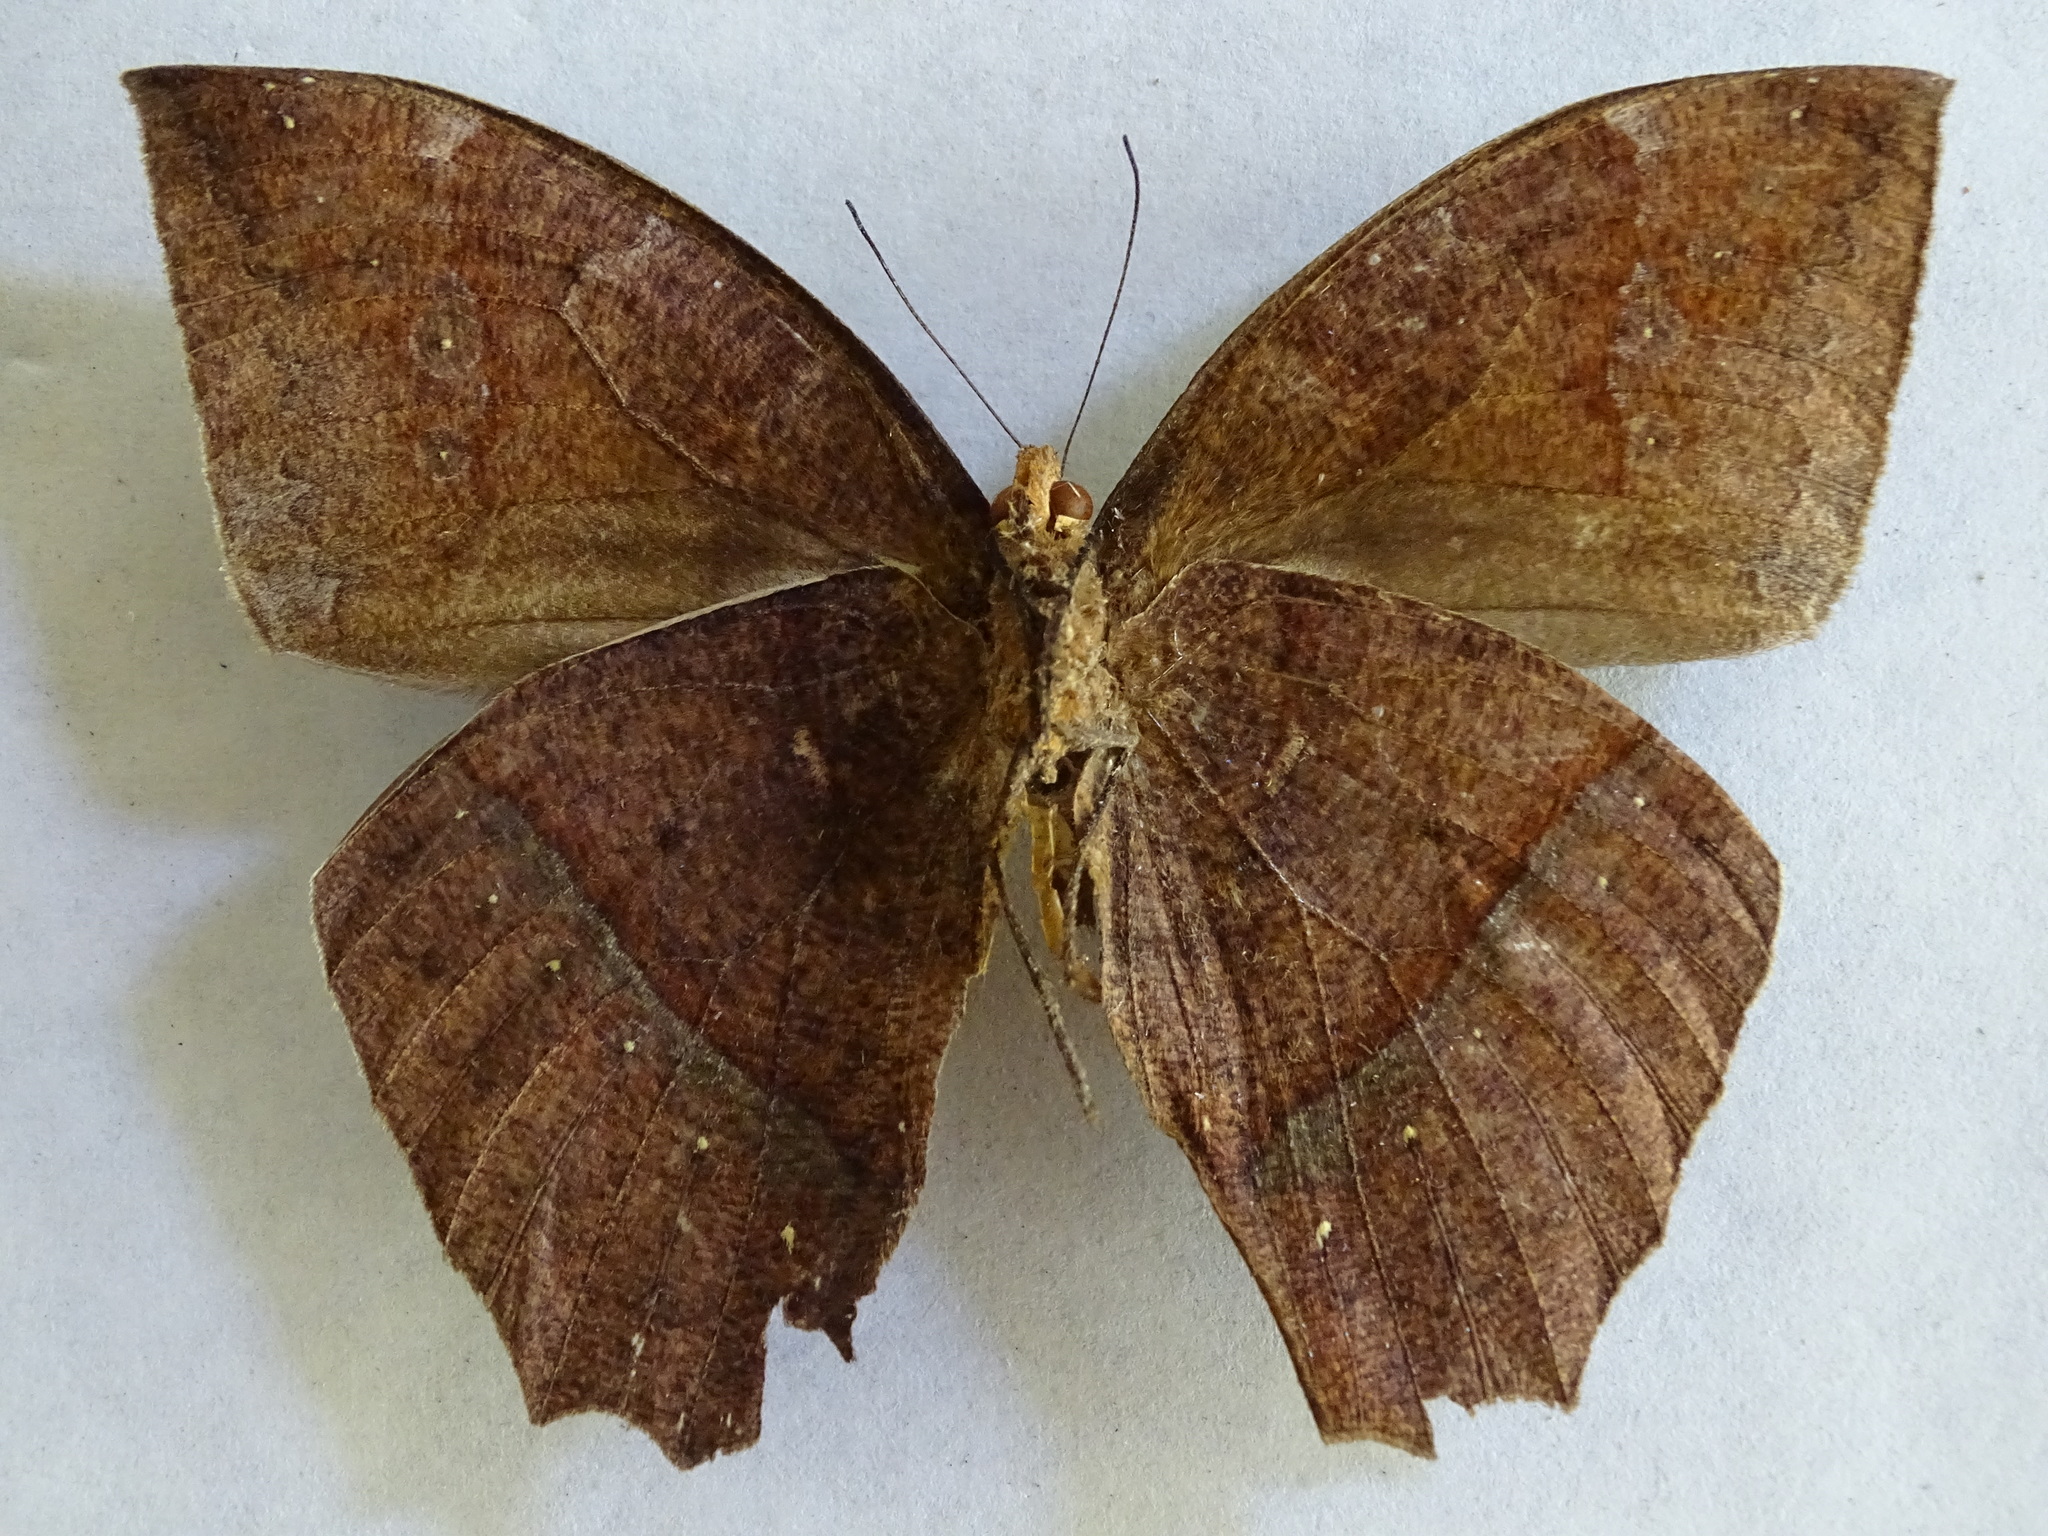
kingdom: Animalia
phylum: Arthropoda
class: Insecta
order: Lepidoptera
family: Nymphalidae
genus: Taygetis
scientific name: Taygetis mermeria
